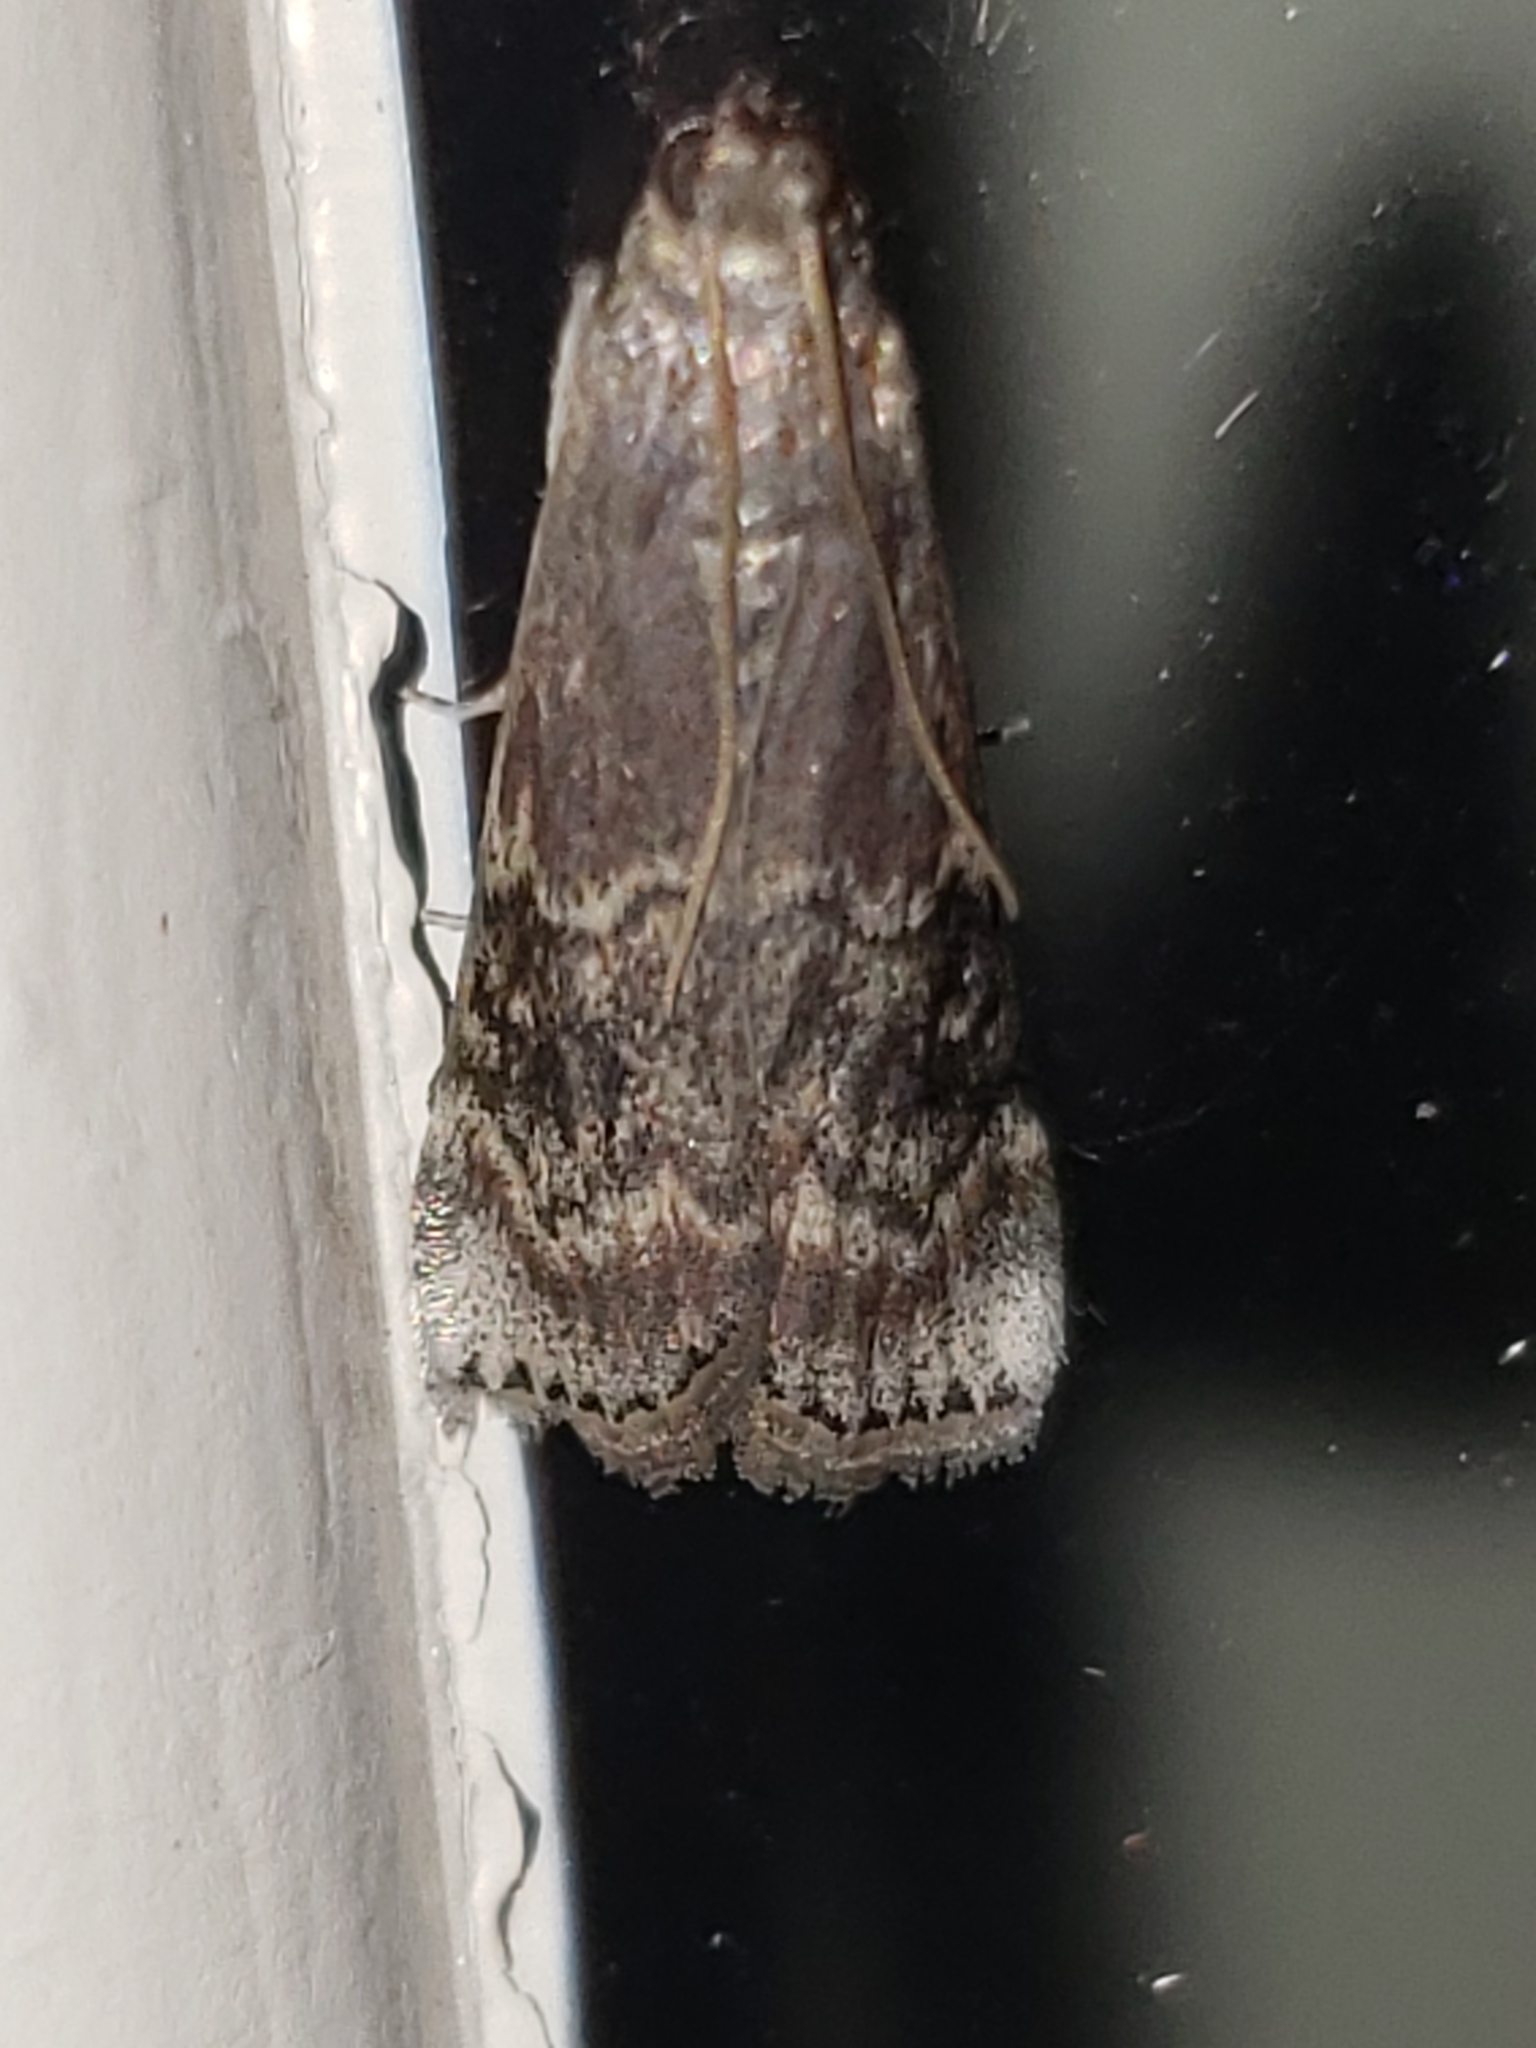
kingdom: Animalia
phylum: Arthropoda
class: Insecta
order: Lepidoptera
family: Pyralidae
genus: Euzophera
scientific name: Euzophera ostricolorella
